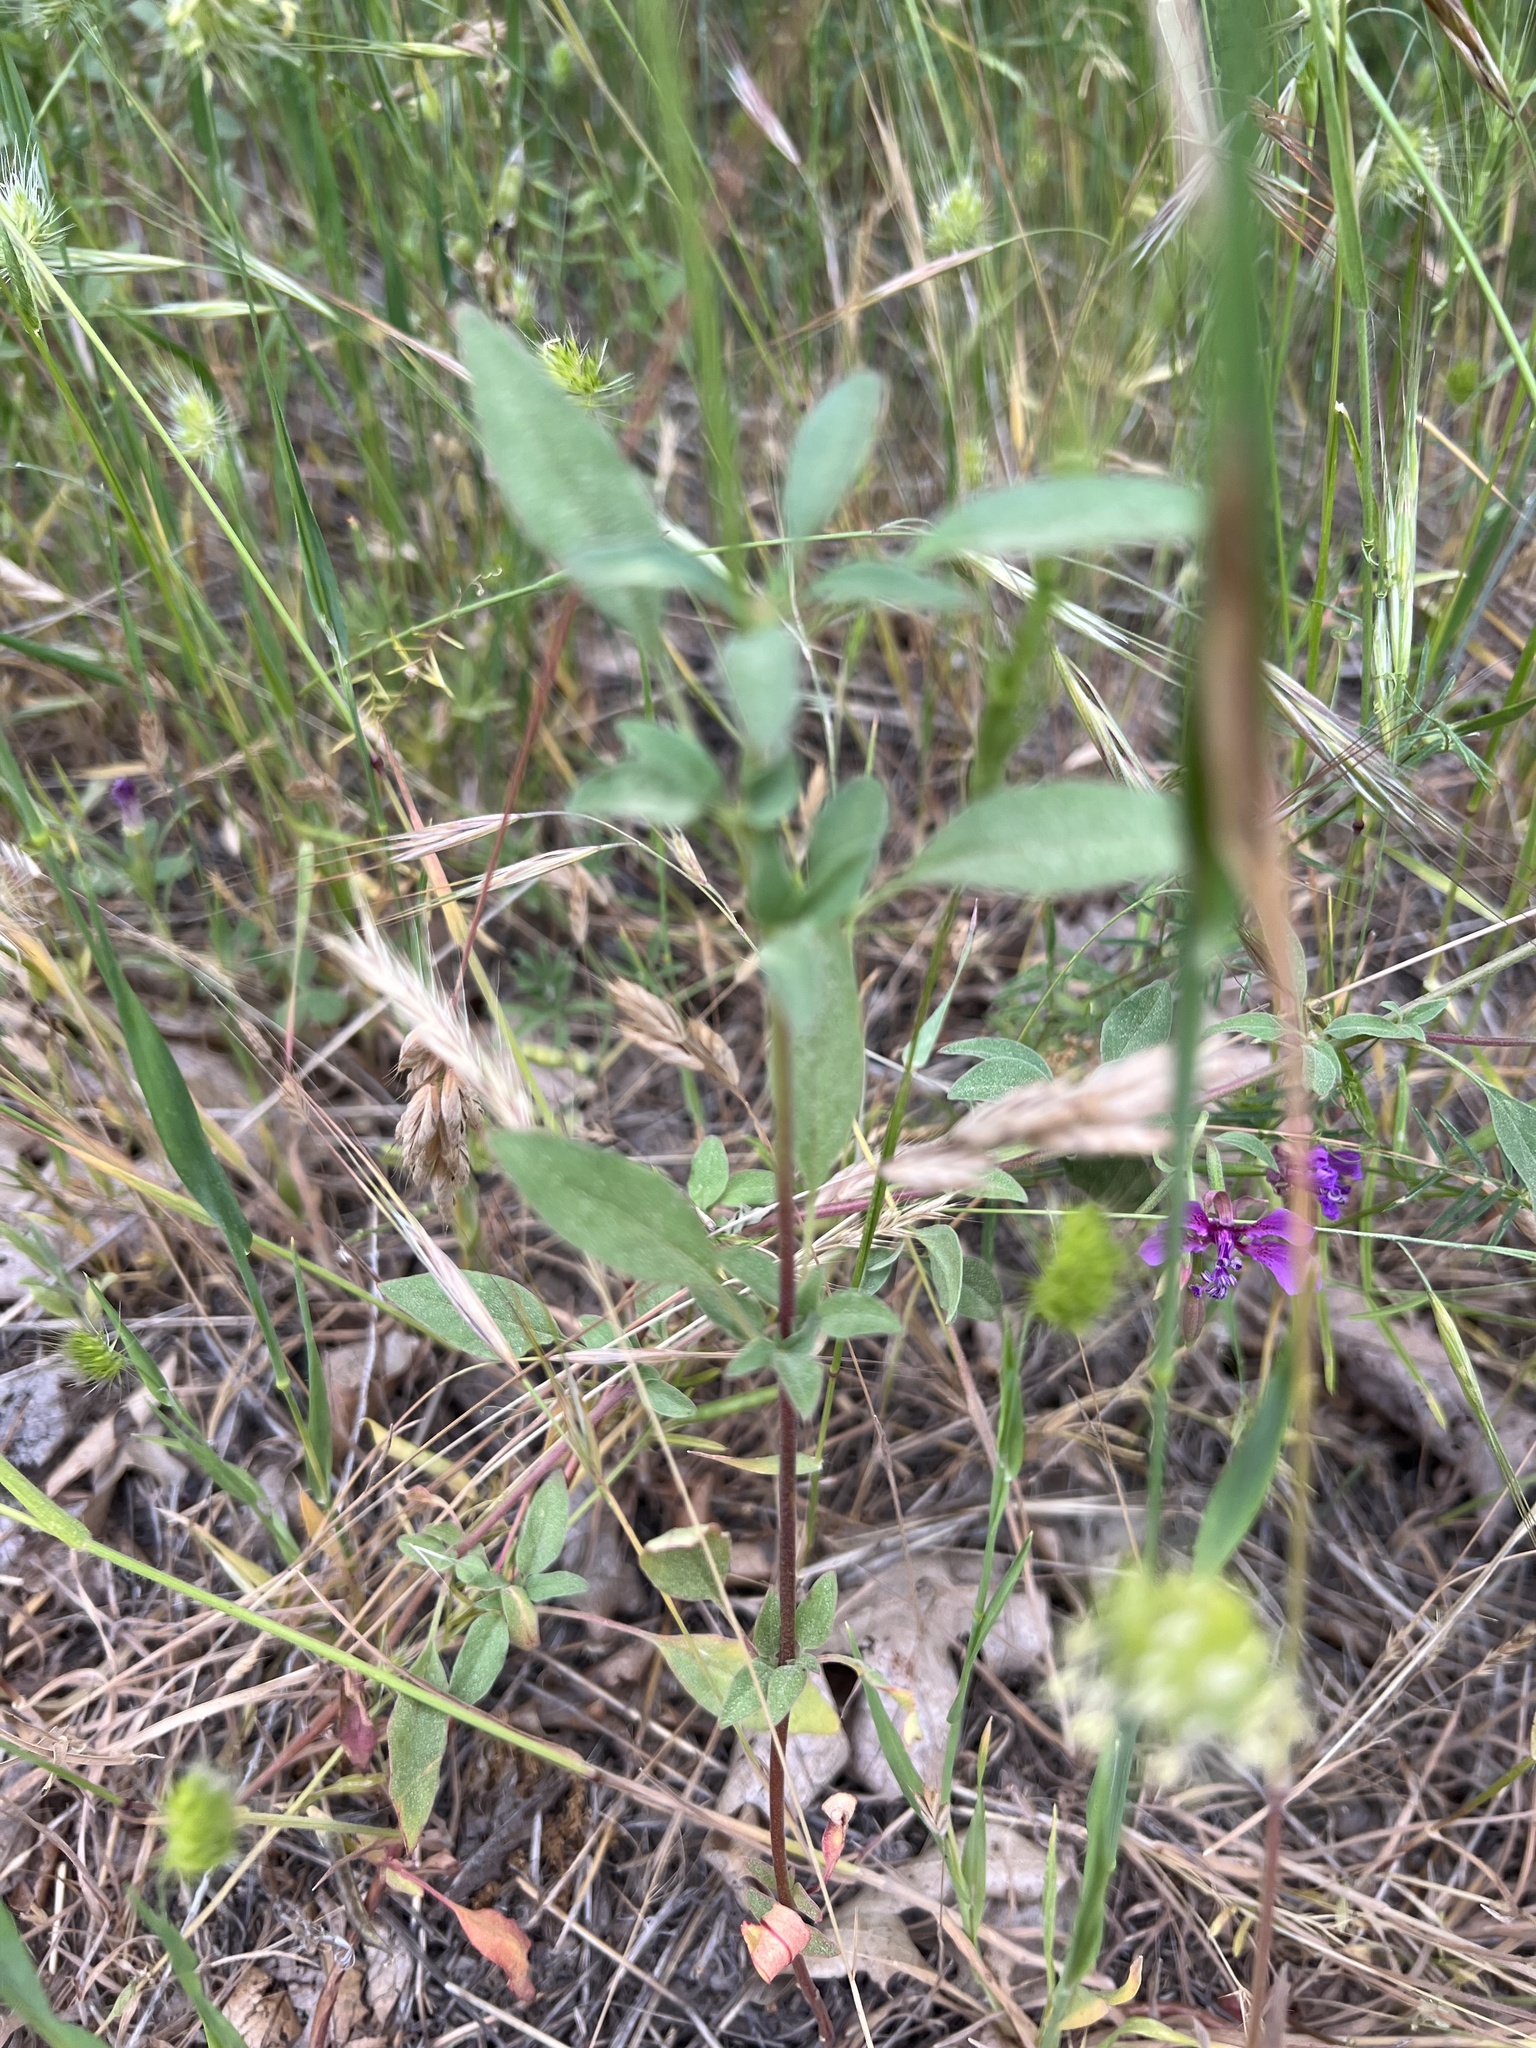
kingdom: Plantae
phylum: Tracheophyta
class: Magnoliopsida
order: Myrtales
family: Onagraceae
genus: Clarkia
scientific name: Clarkia rhomboidea
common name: Broadleaf clarkia
